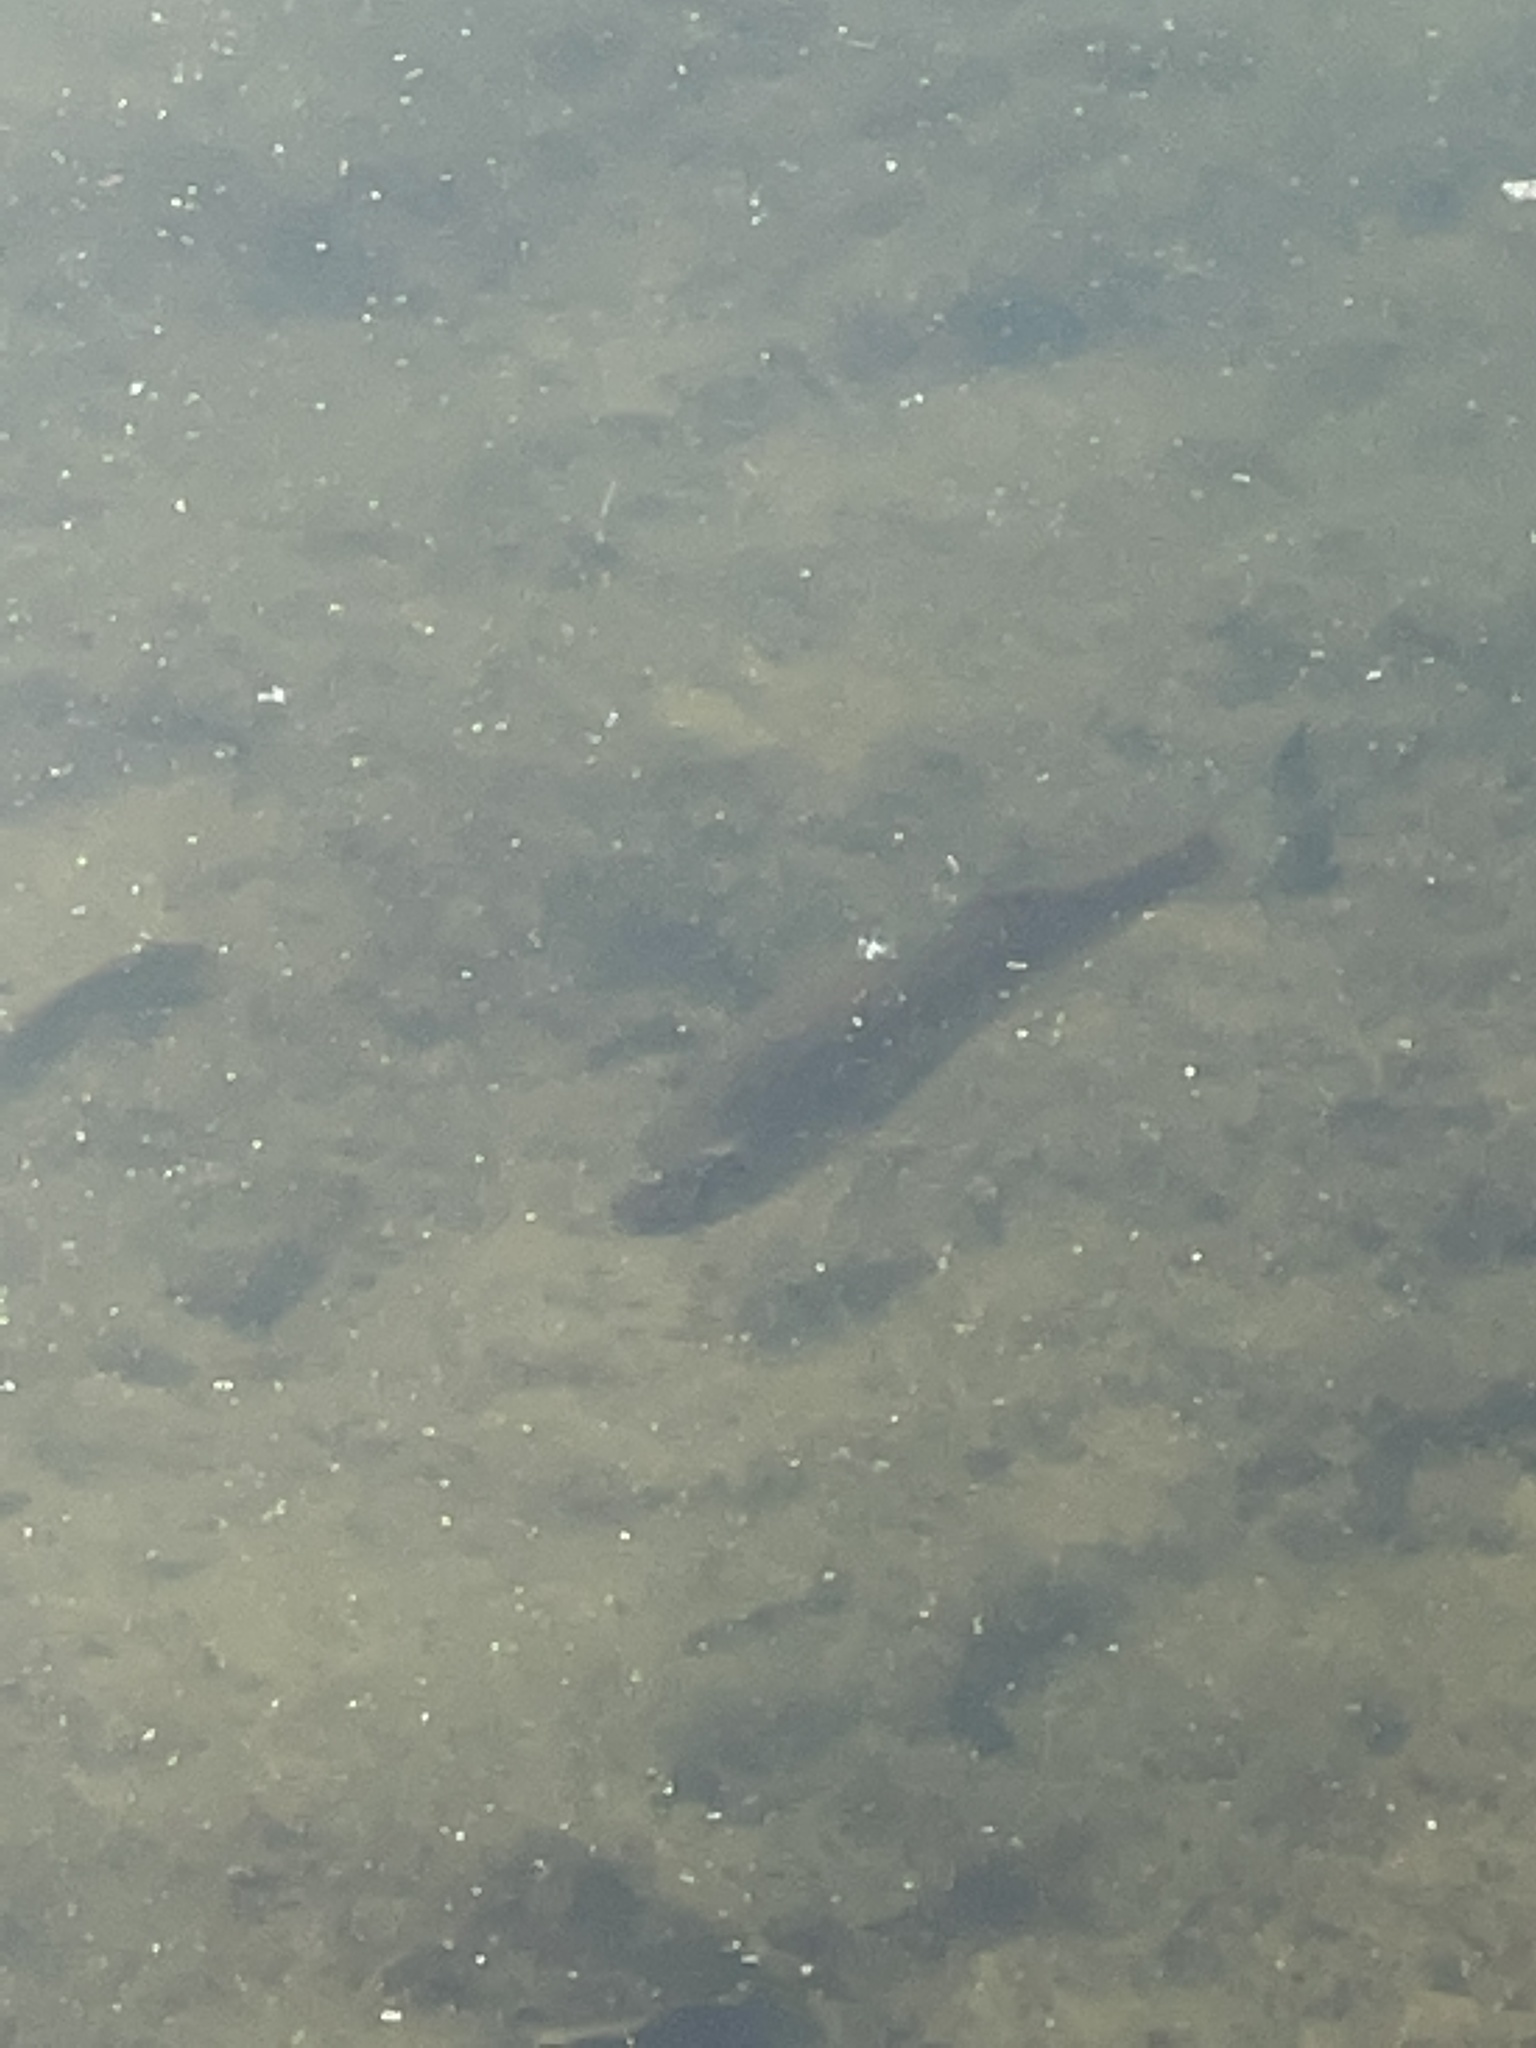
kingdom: Animalia
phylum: Chordata
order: Perciformes
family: Centrarchidae
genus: Micropterus
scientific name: Micropterus salmoides
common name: Largemouth bass
